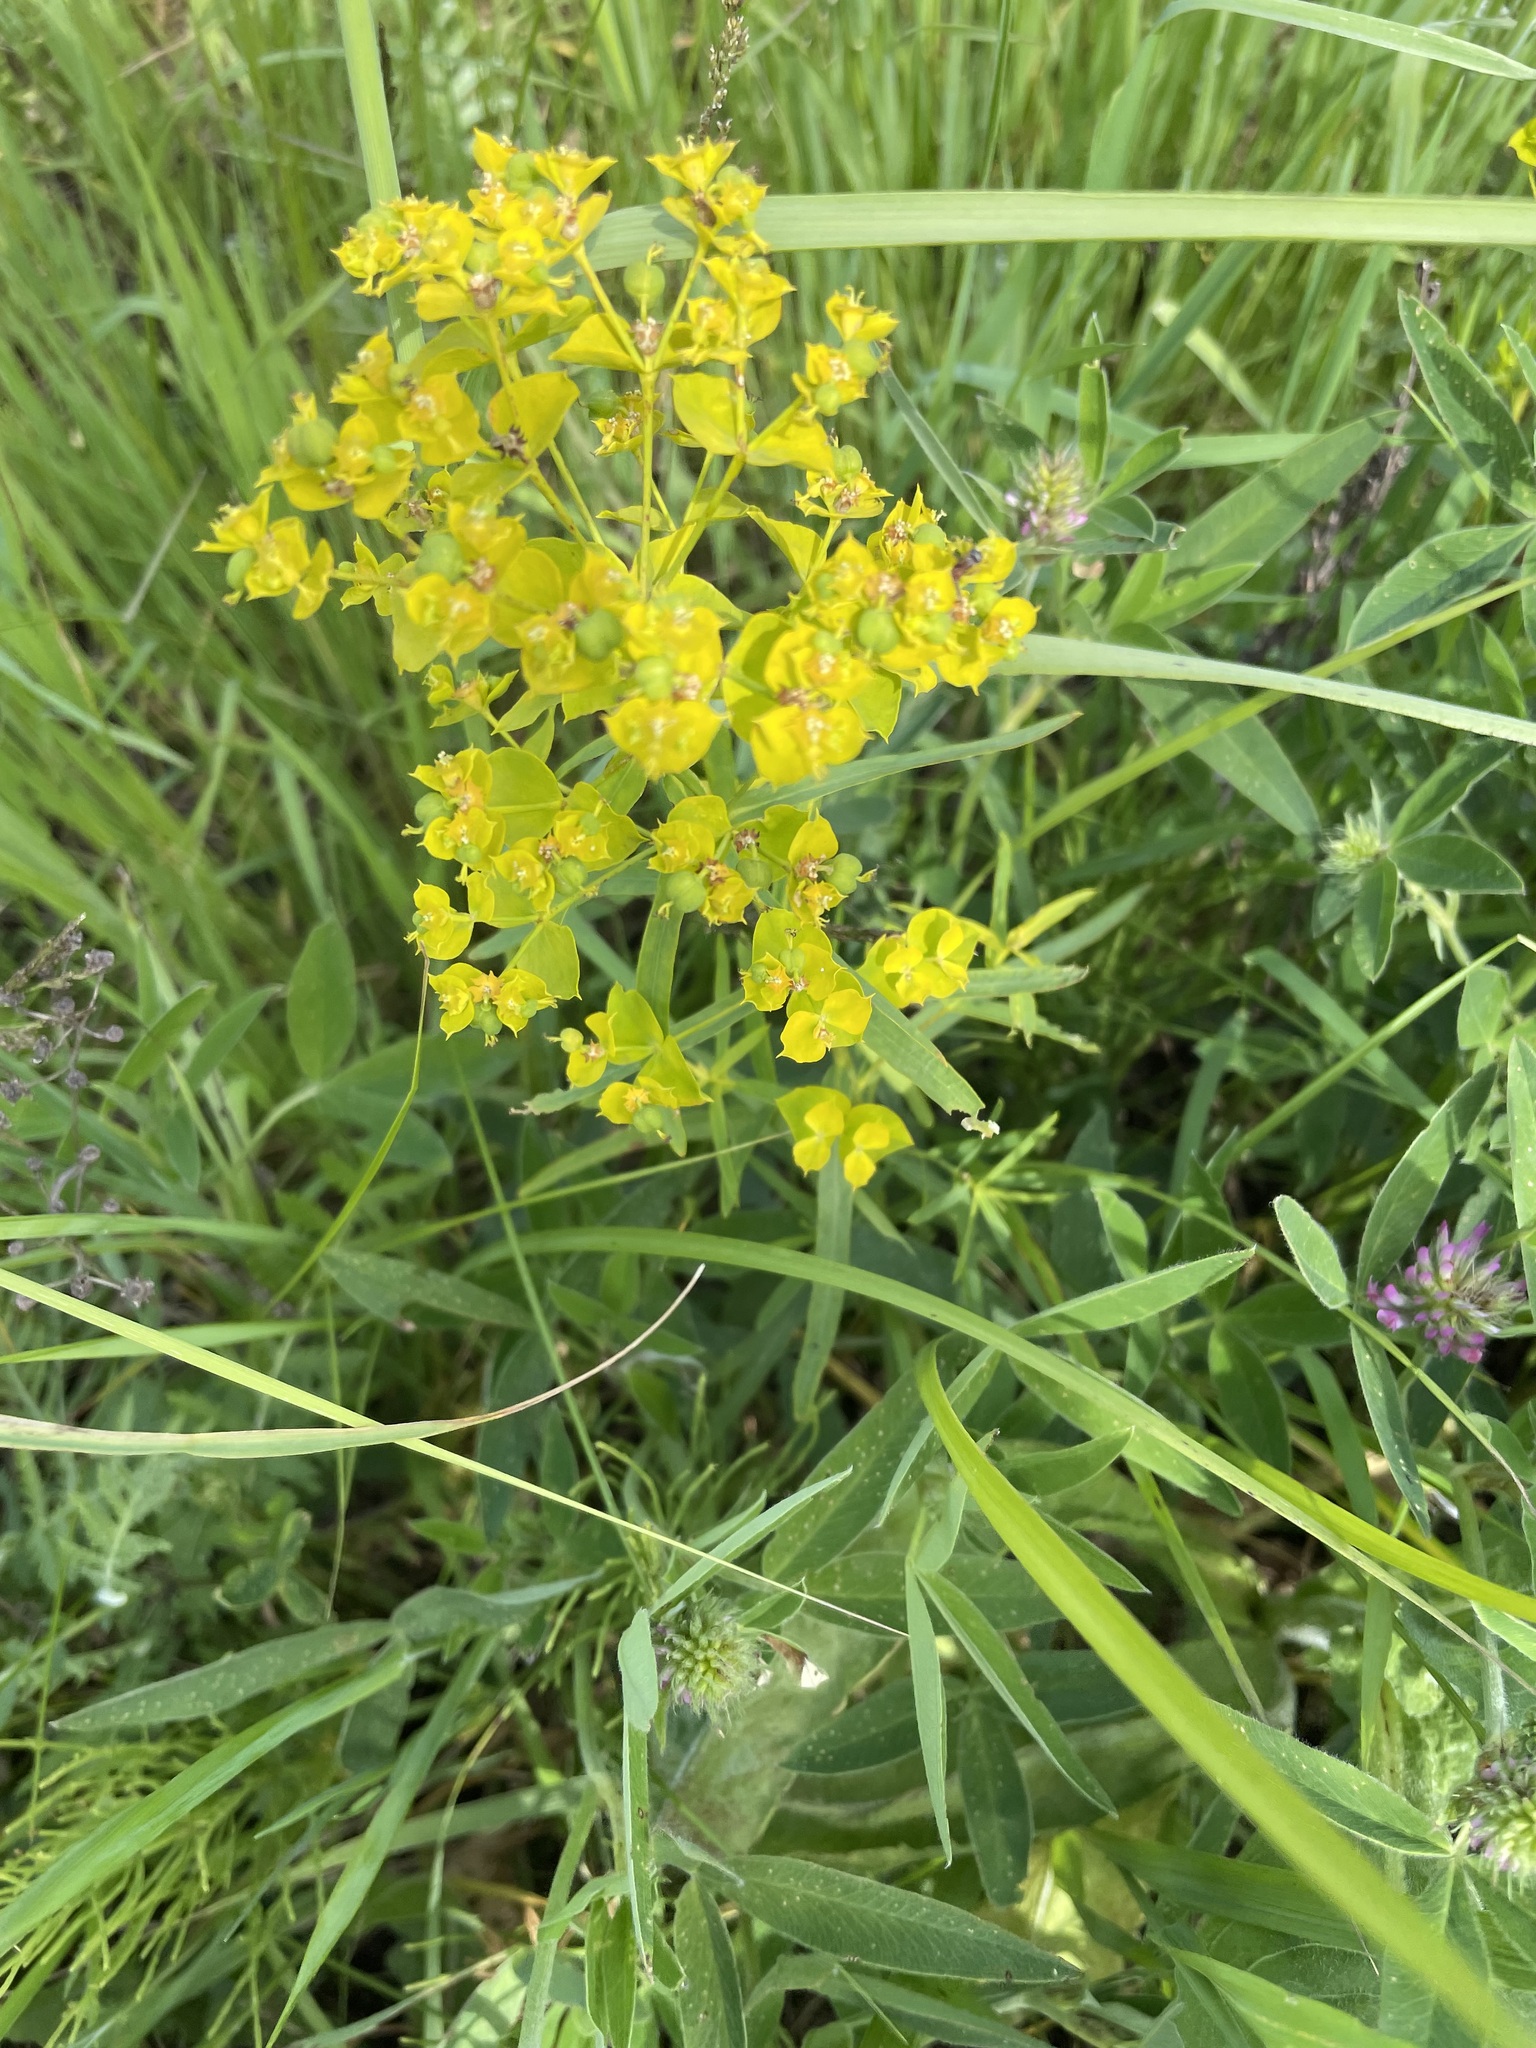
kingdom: Plantae
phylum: Tracheophyta
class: Magnoliopsida
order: Malpighiales
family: Euphorbiaceae
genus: Euphorbia
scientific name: Euphorbia virgata
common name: Leafy spurge
